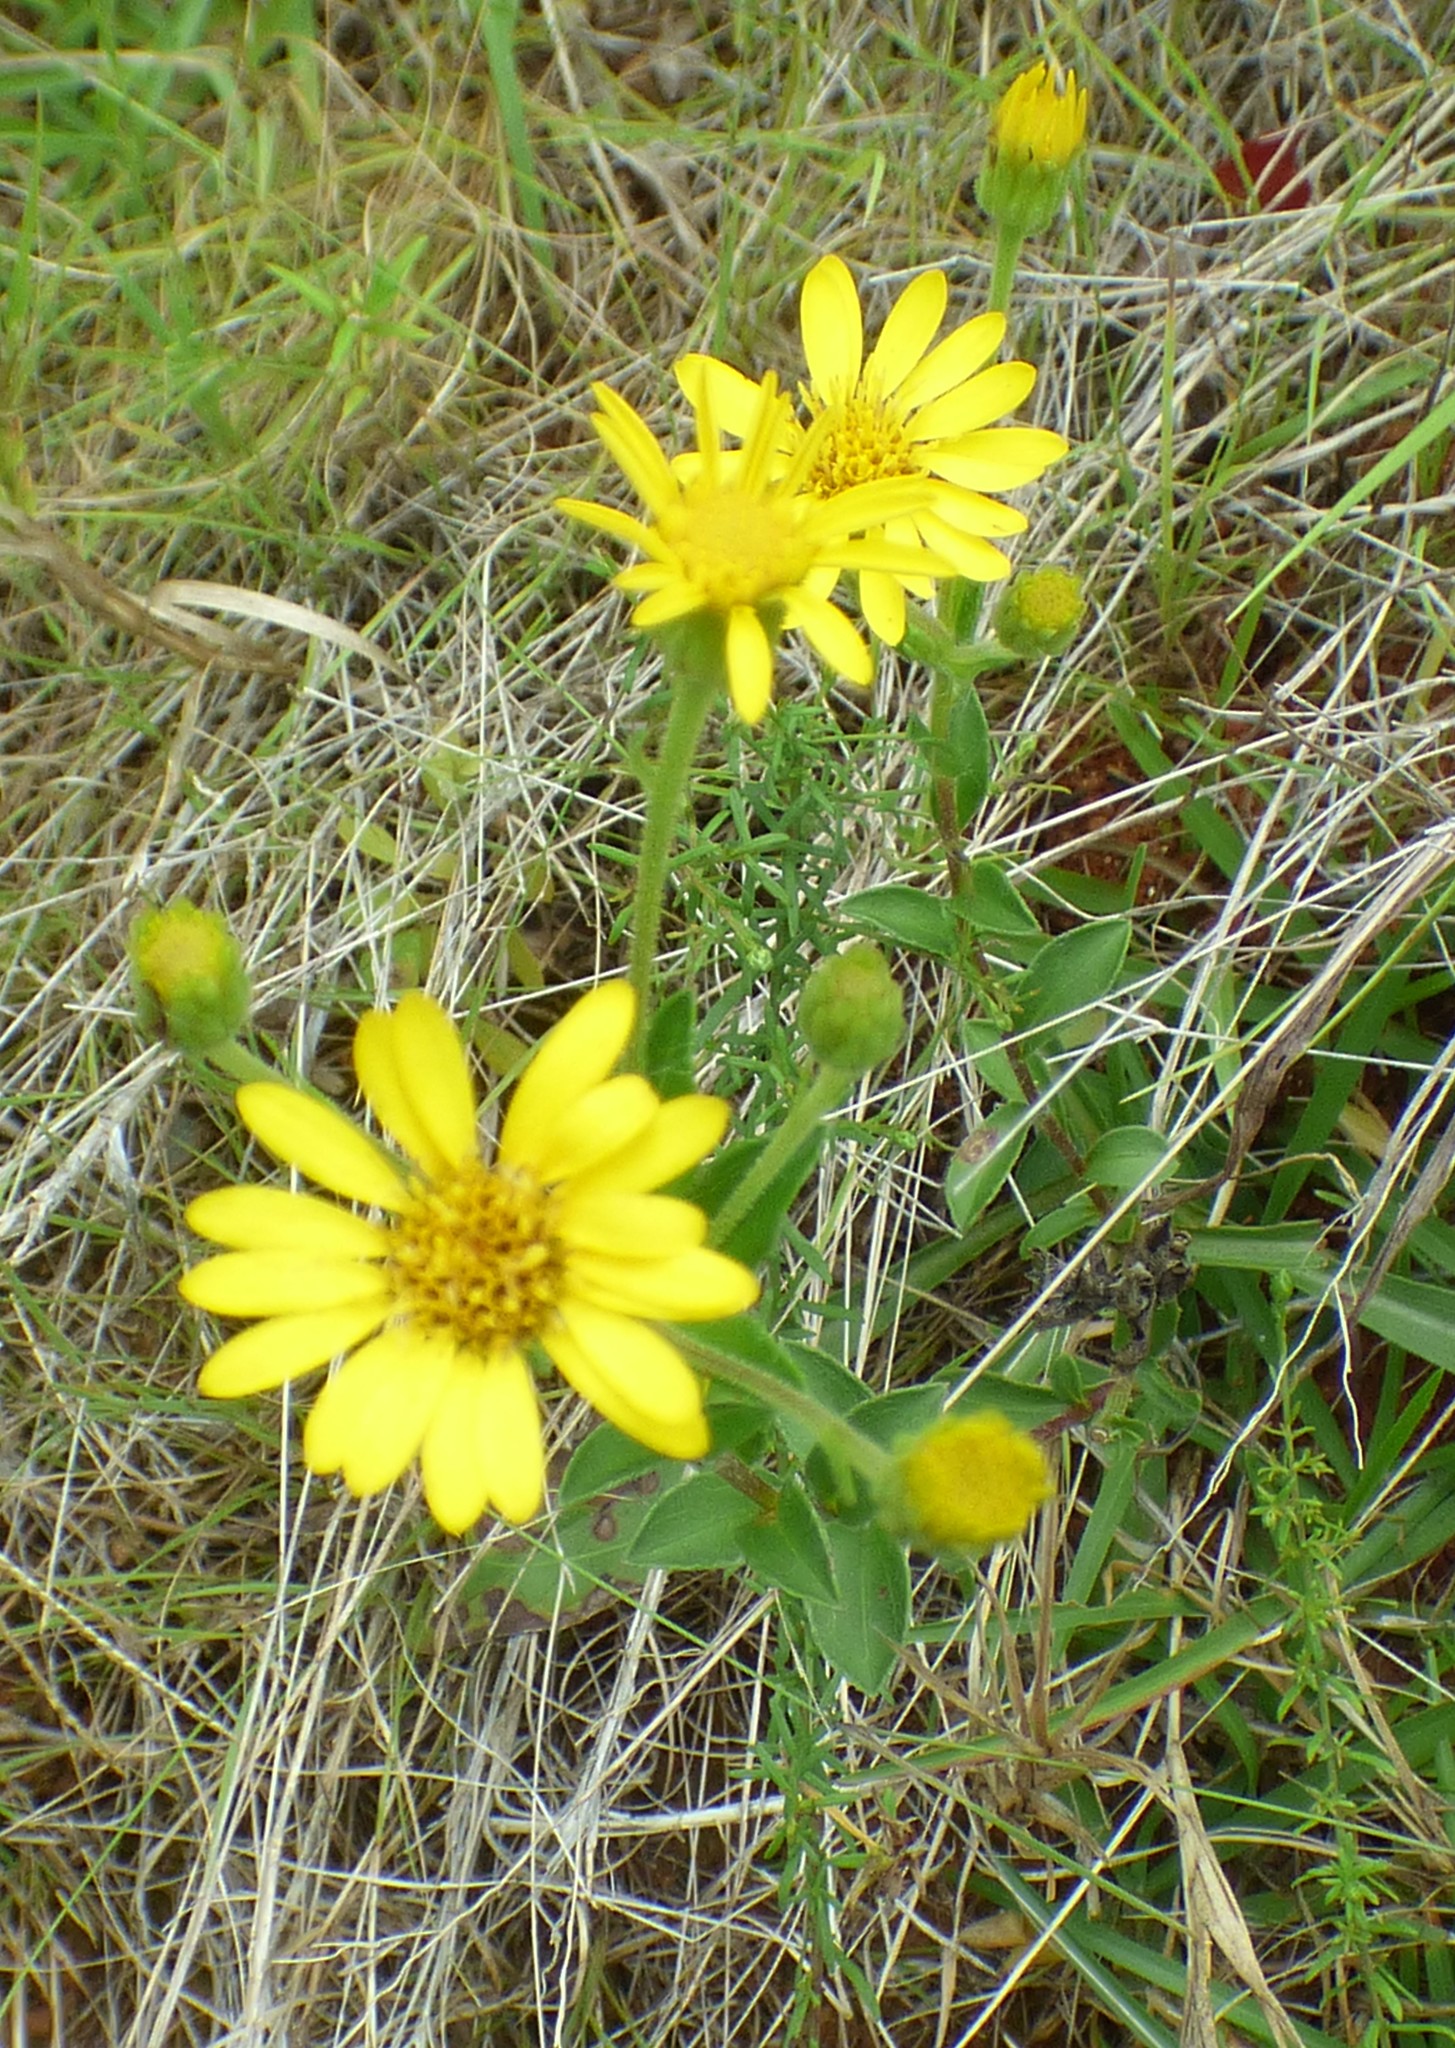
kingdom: Plantae
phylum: Tracheophyta
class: Magnoliopsida
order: Asterales
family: Asteraceae
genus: Chrysopsis
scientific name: Chrysopsis mariana
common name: Maryland golden-aster
